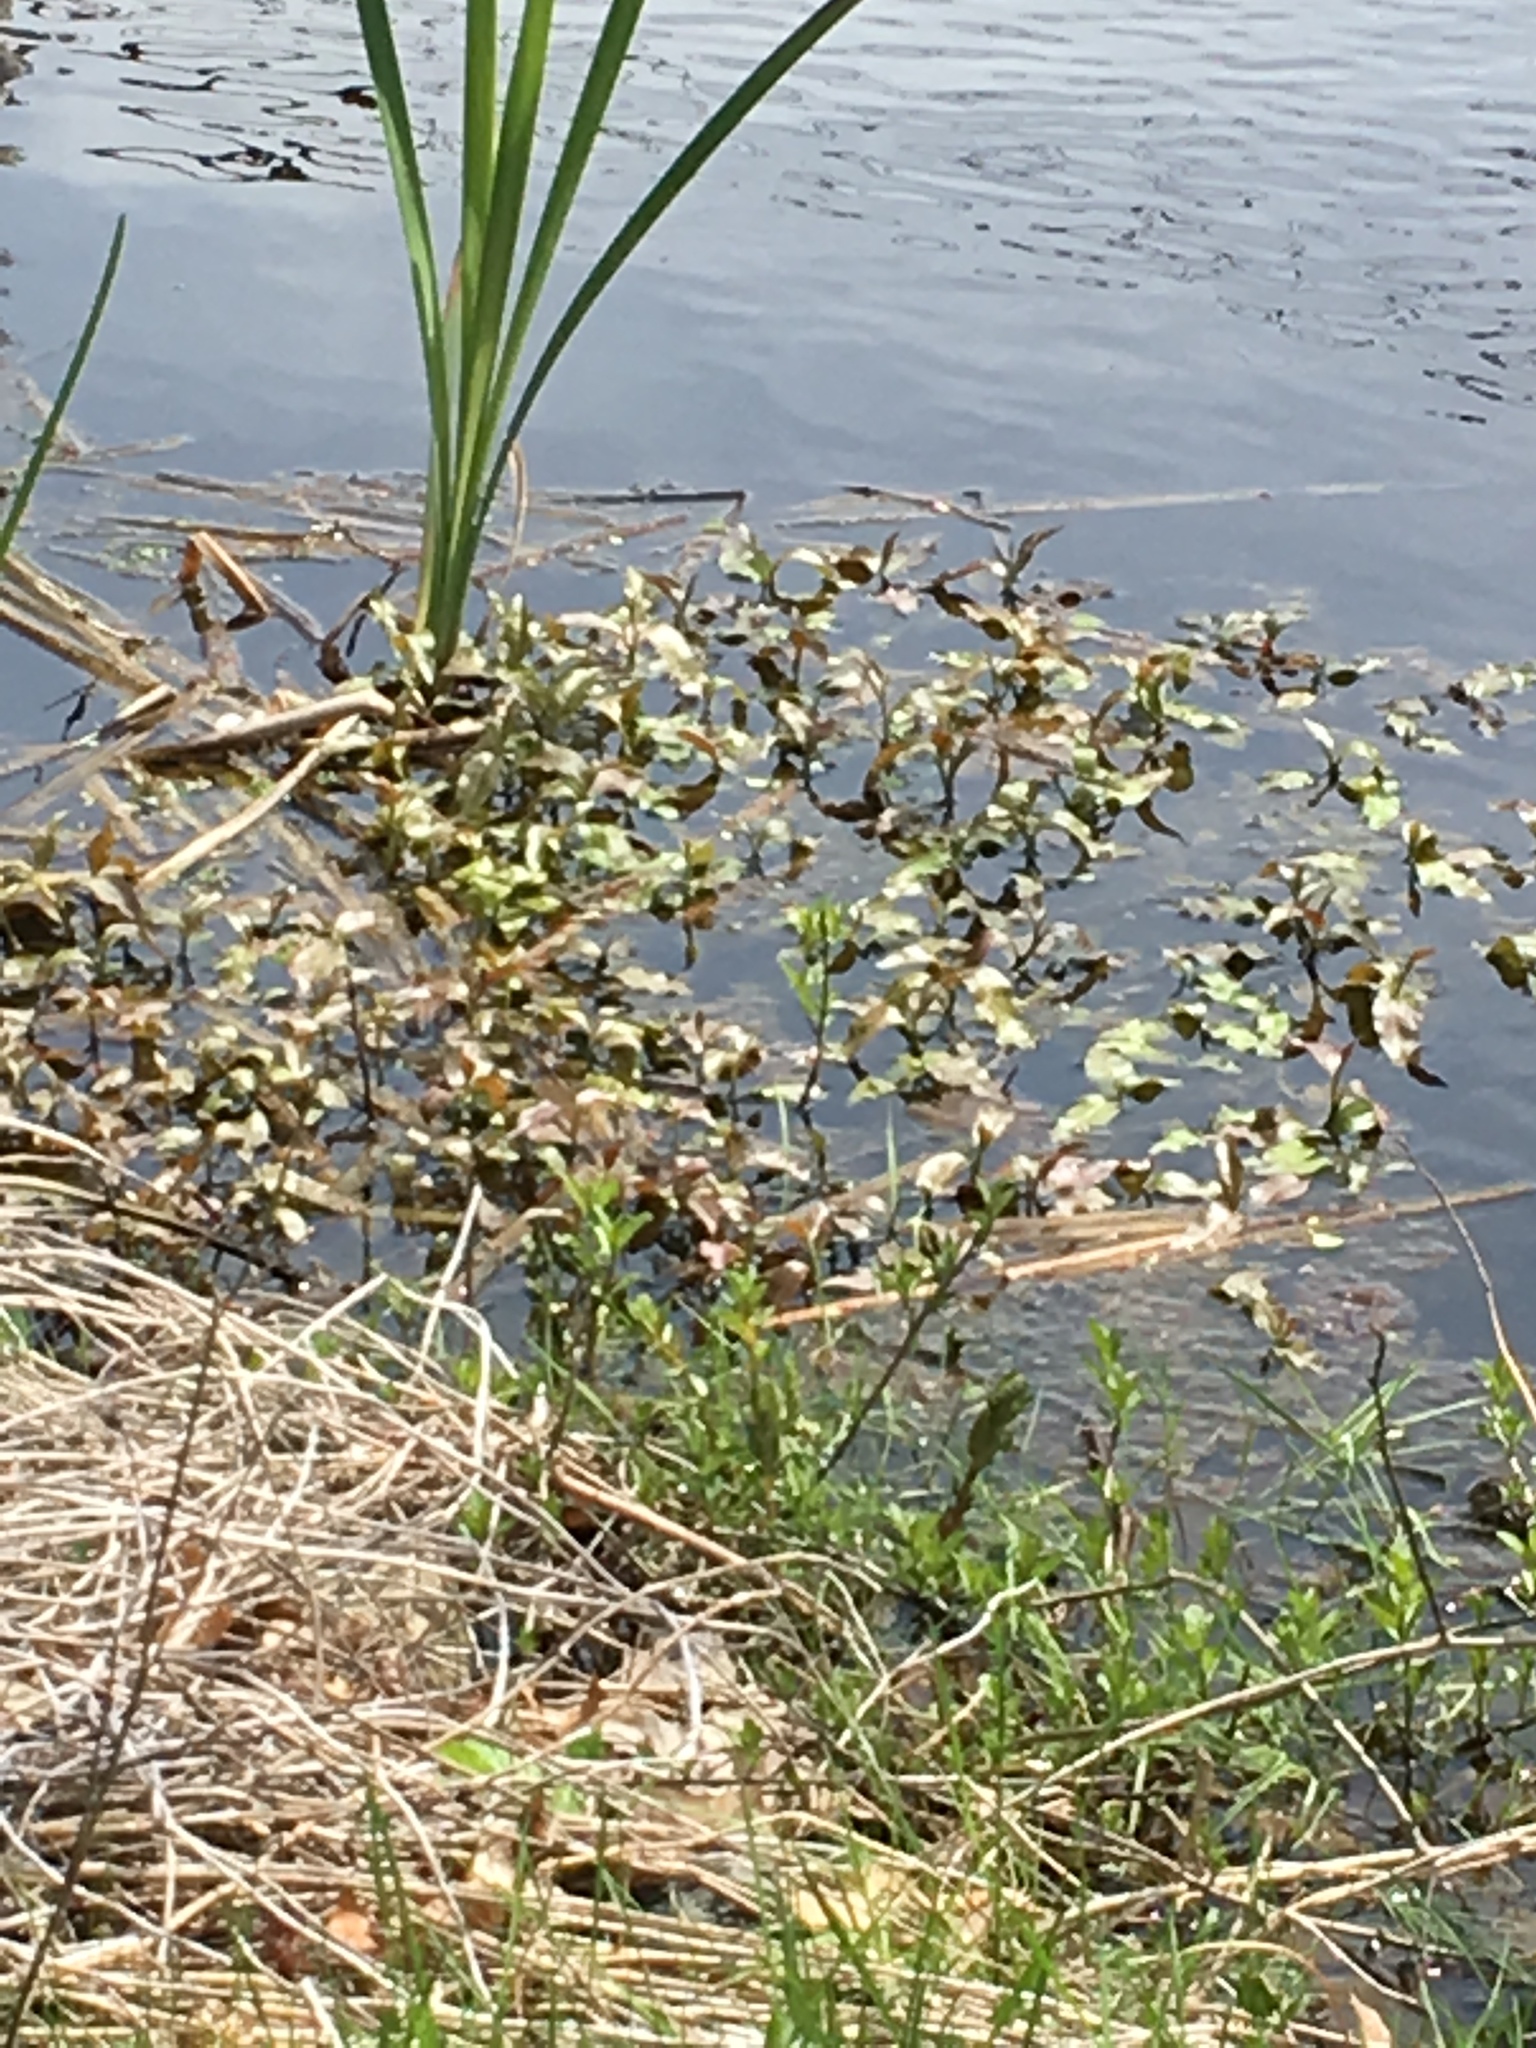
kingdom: Plantae
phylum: Tracheophyta
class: Magnoliopsida
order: Myrtales
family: Onagraceae
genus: Ludwigia
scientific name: Ludwigia peploides
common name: Floating primrose-willow
